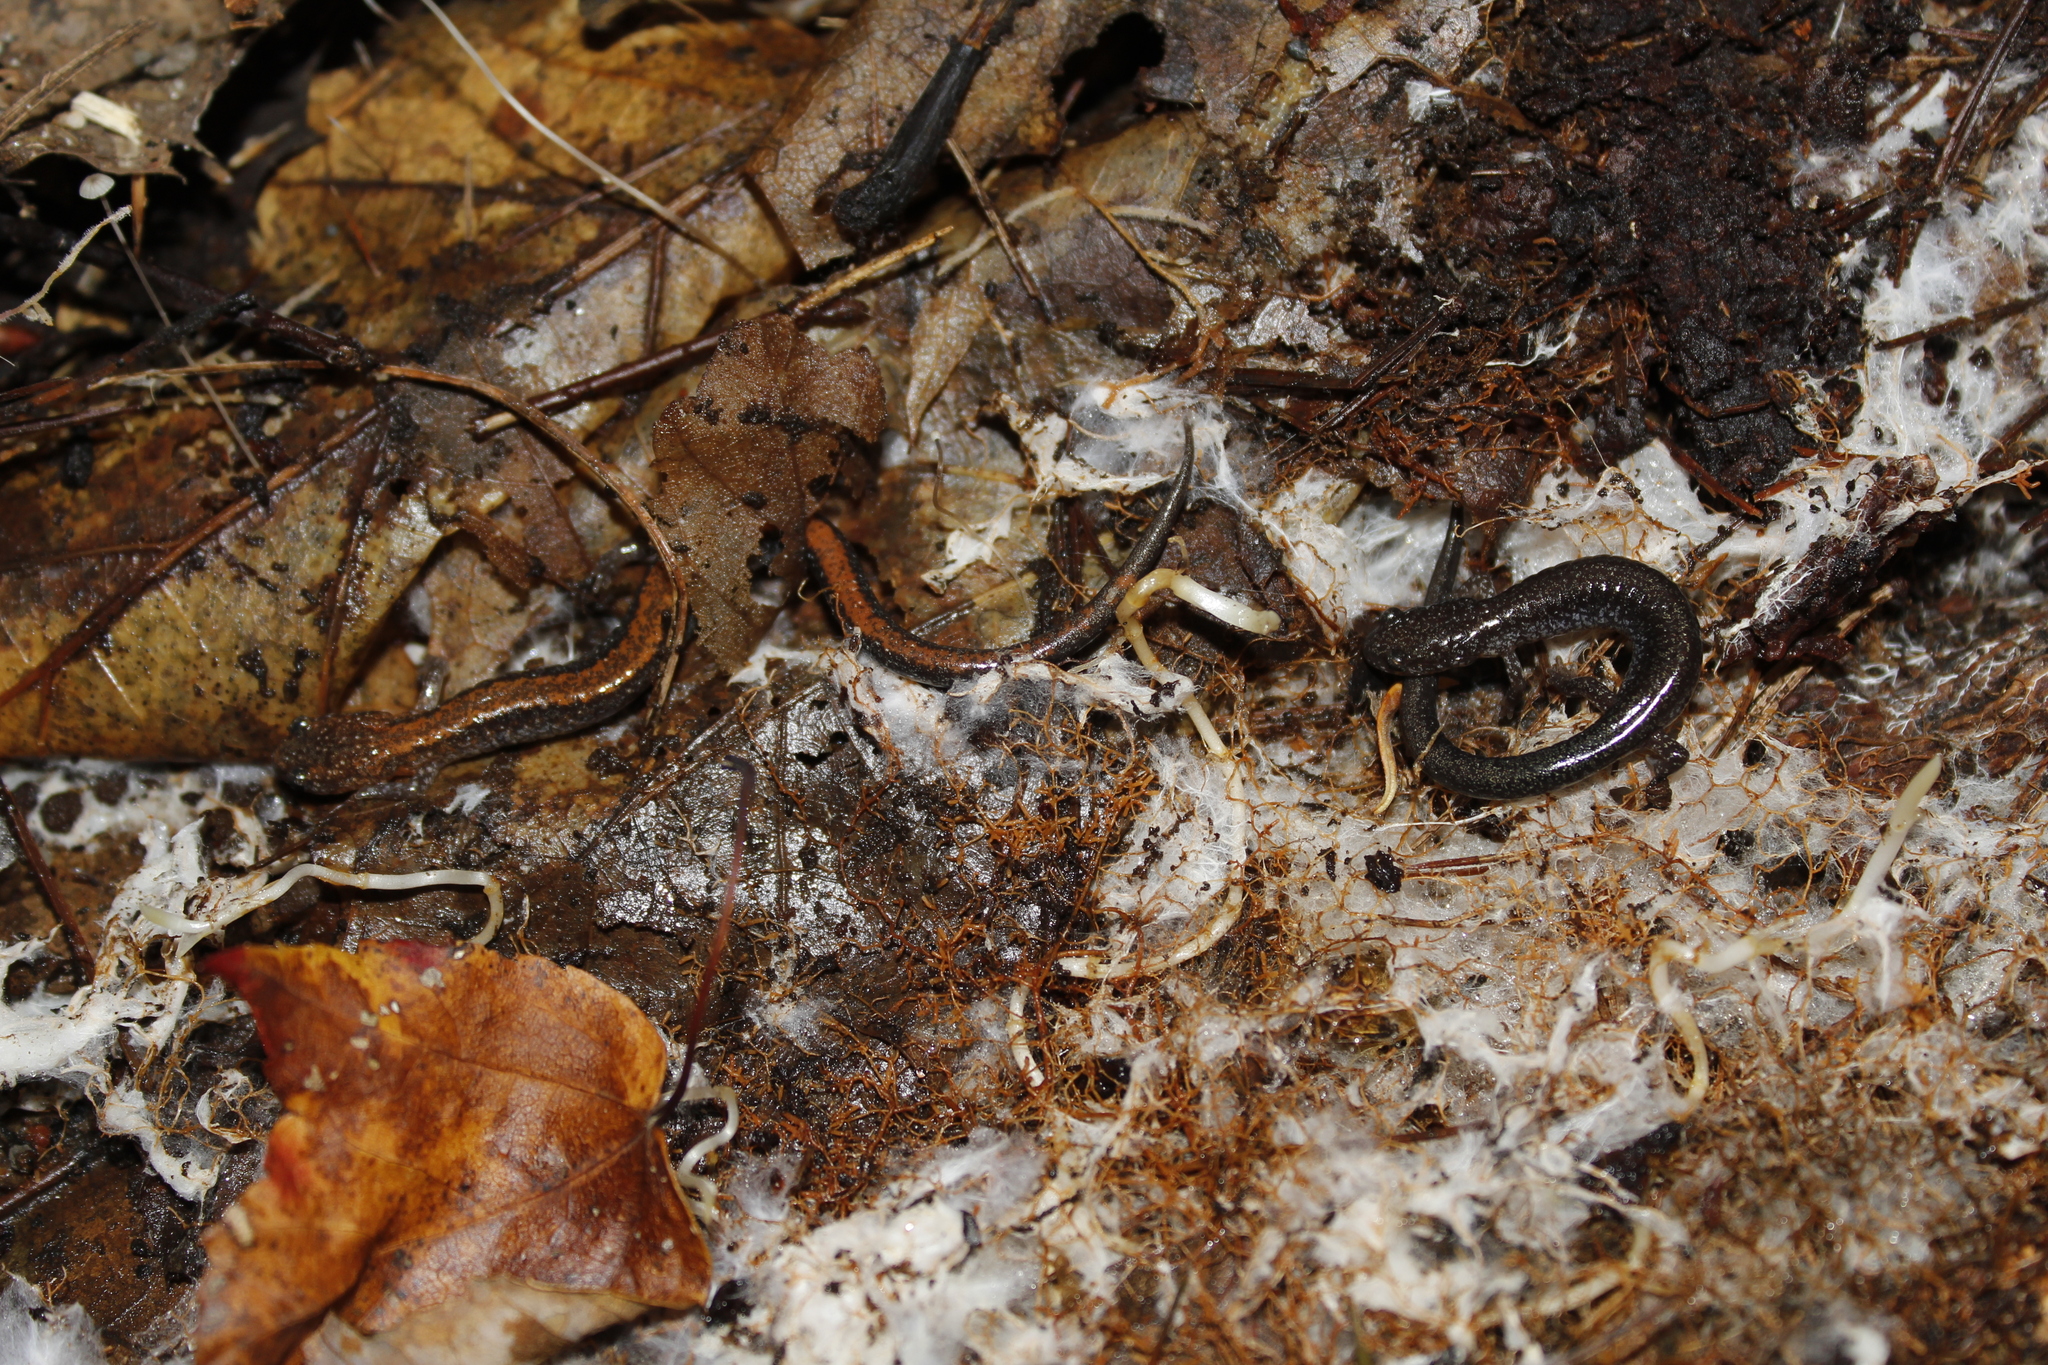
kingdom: Animalia
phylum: Chordata
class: Amphibia
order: Caudata
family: Plethodontidae
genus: Plethodon
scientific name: Plethodon cinereus
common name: Redback salamander
